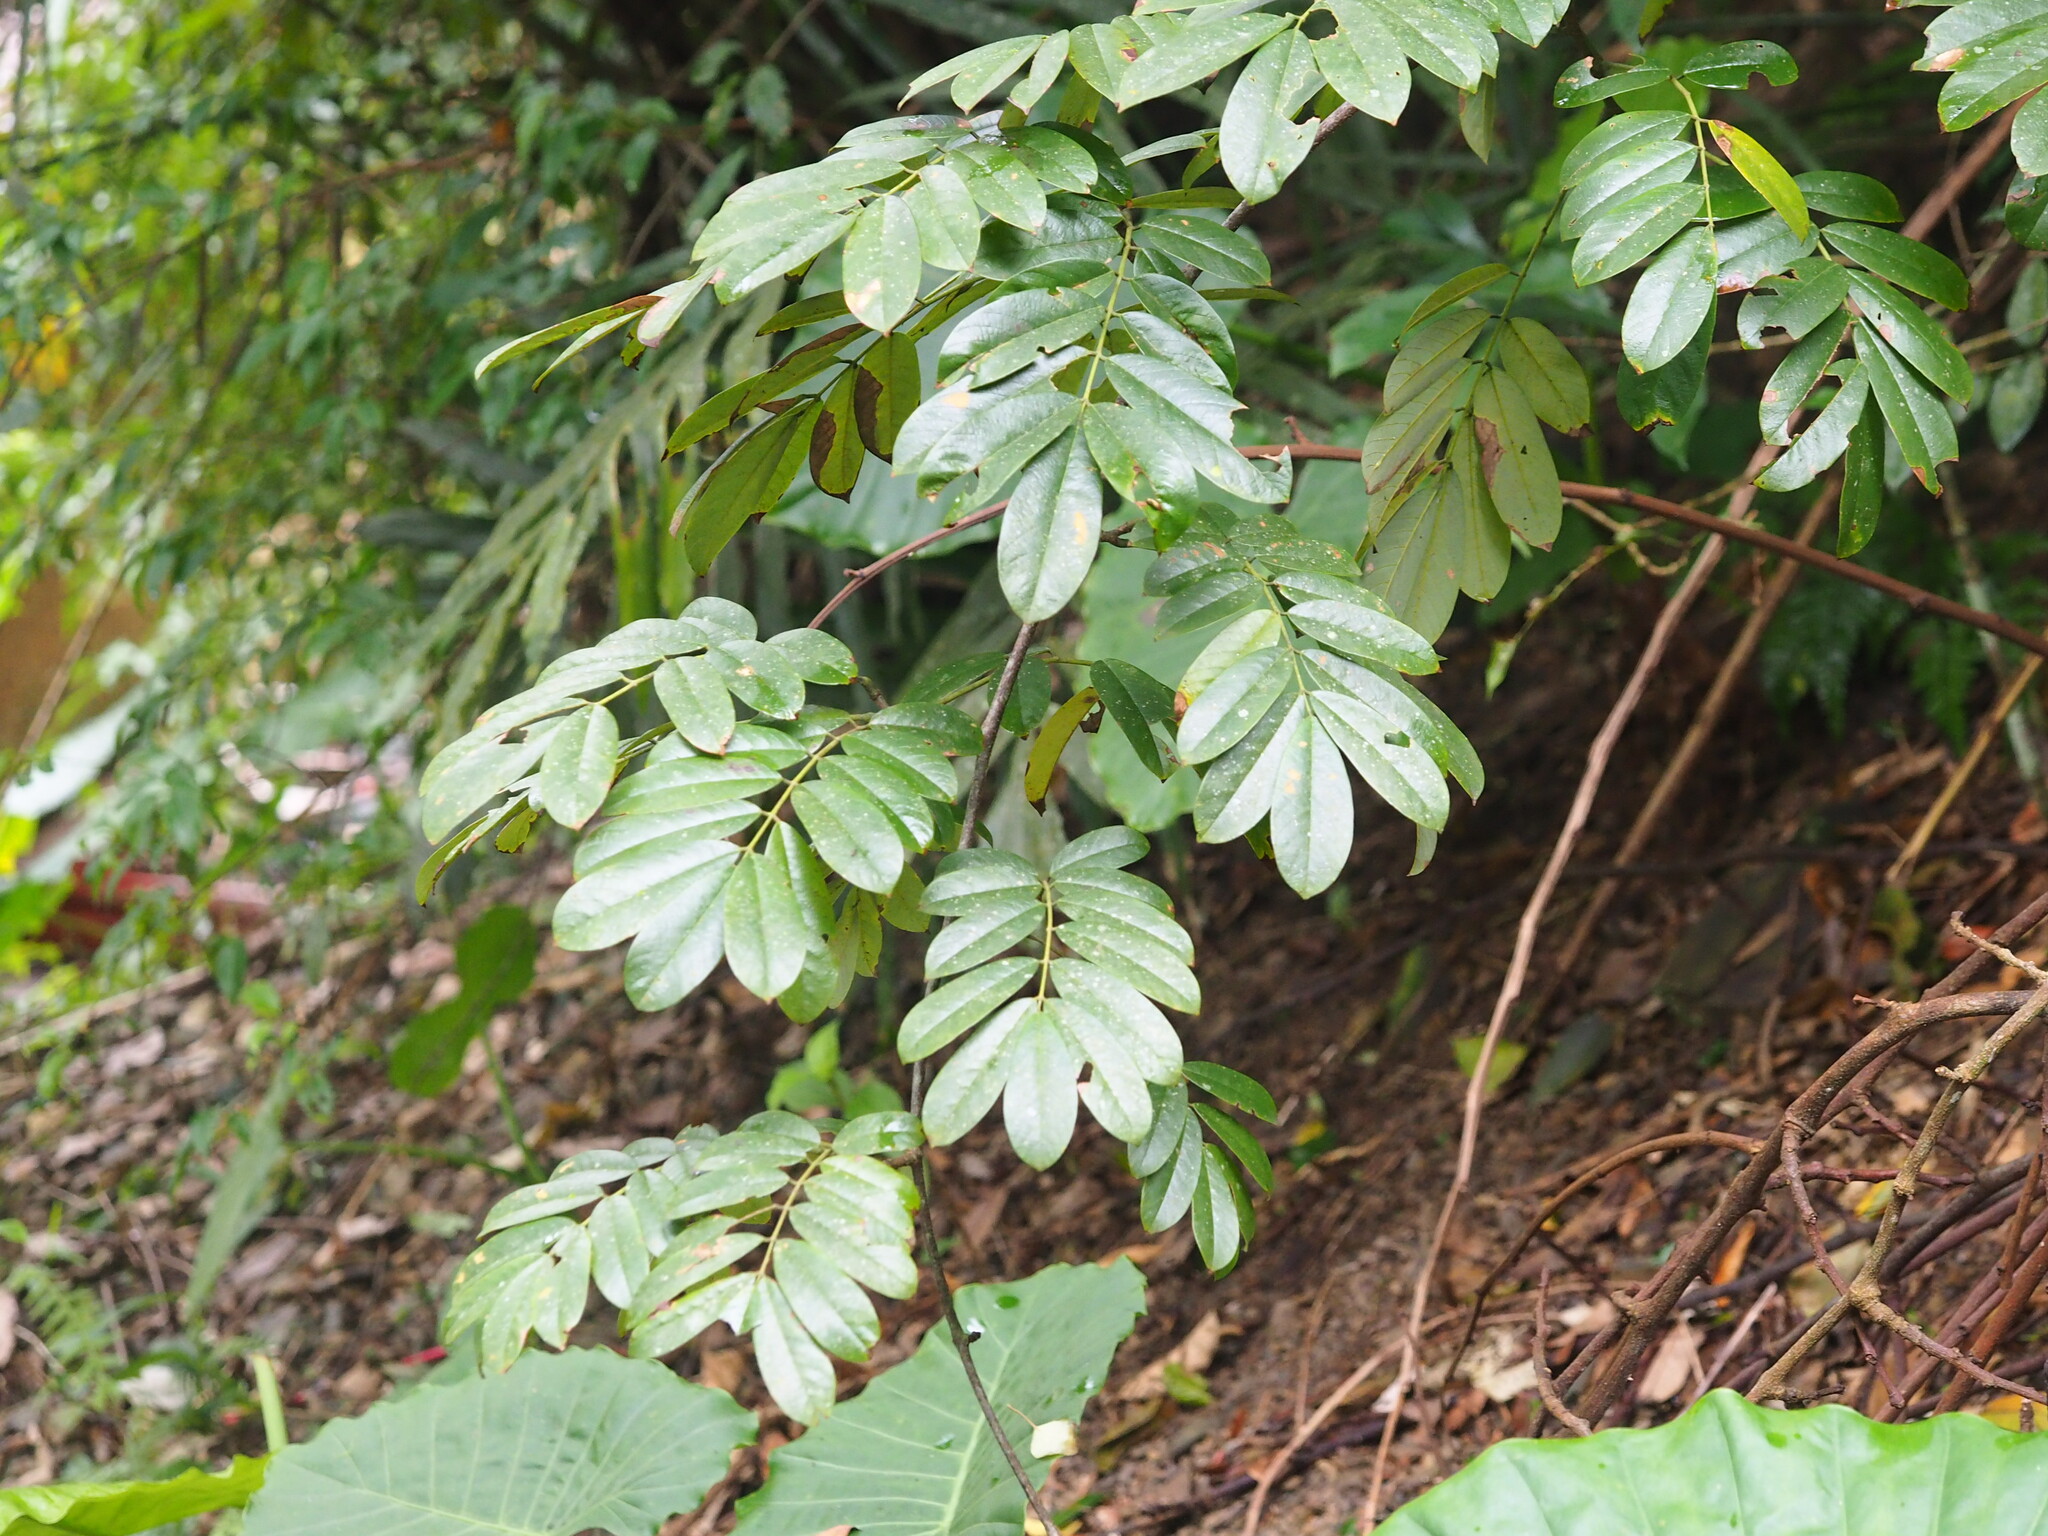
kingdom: Plantae
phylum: Tracheophyta
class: Magnoliopsida
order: Fabales
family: Fabaceae
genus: Millettia
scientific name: Millettia pachycarpa
